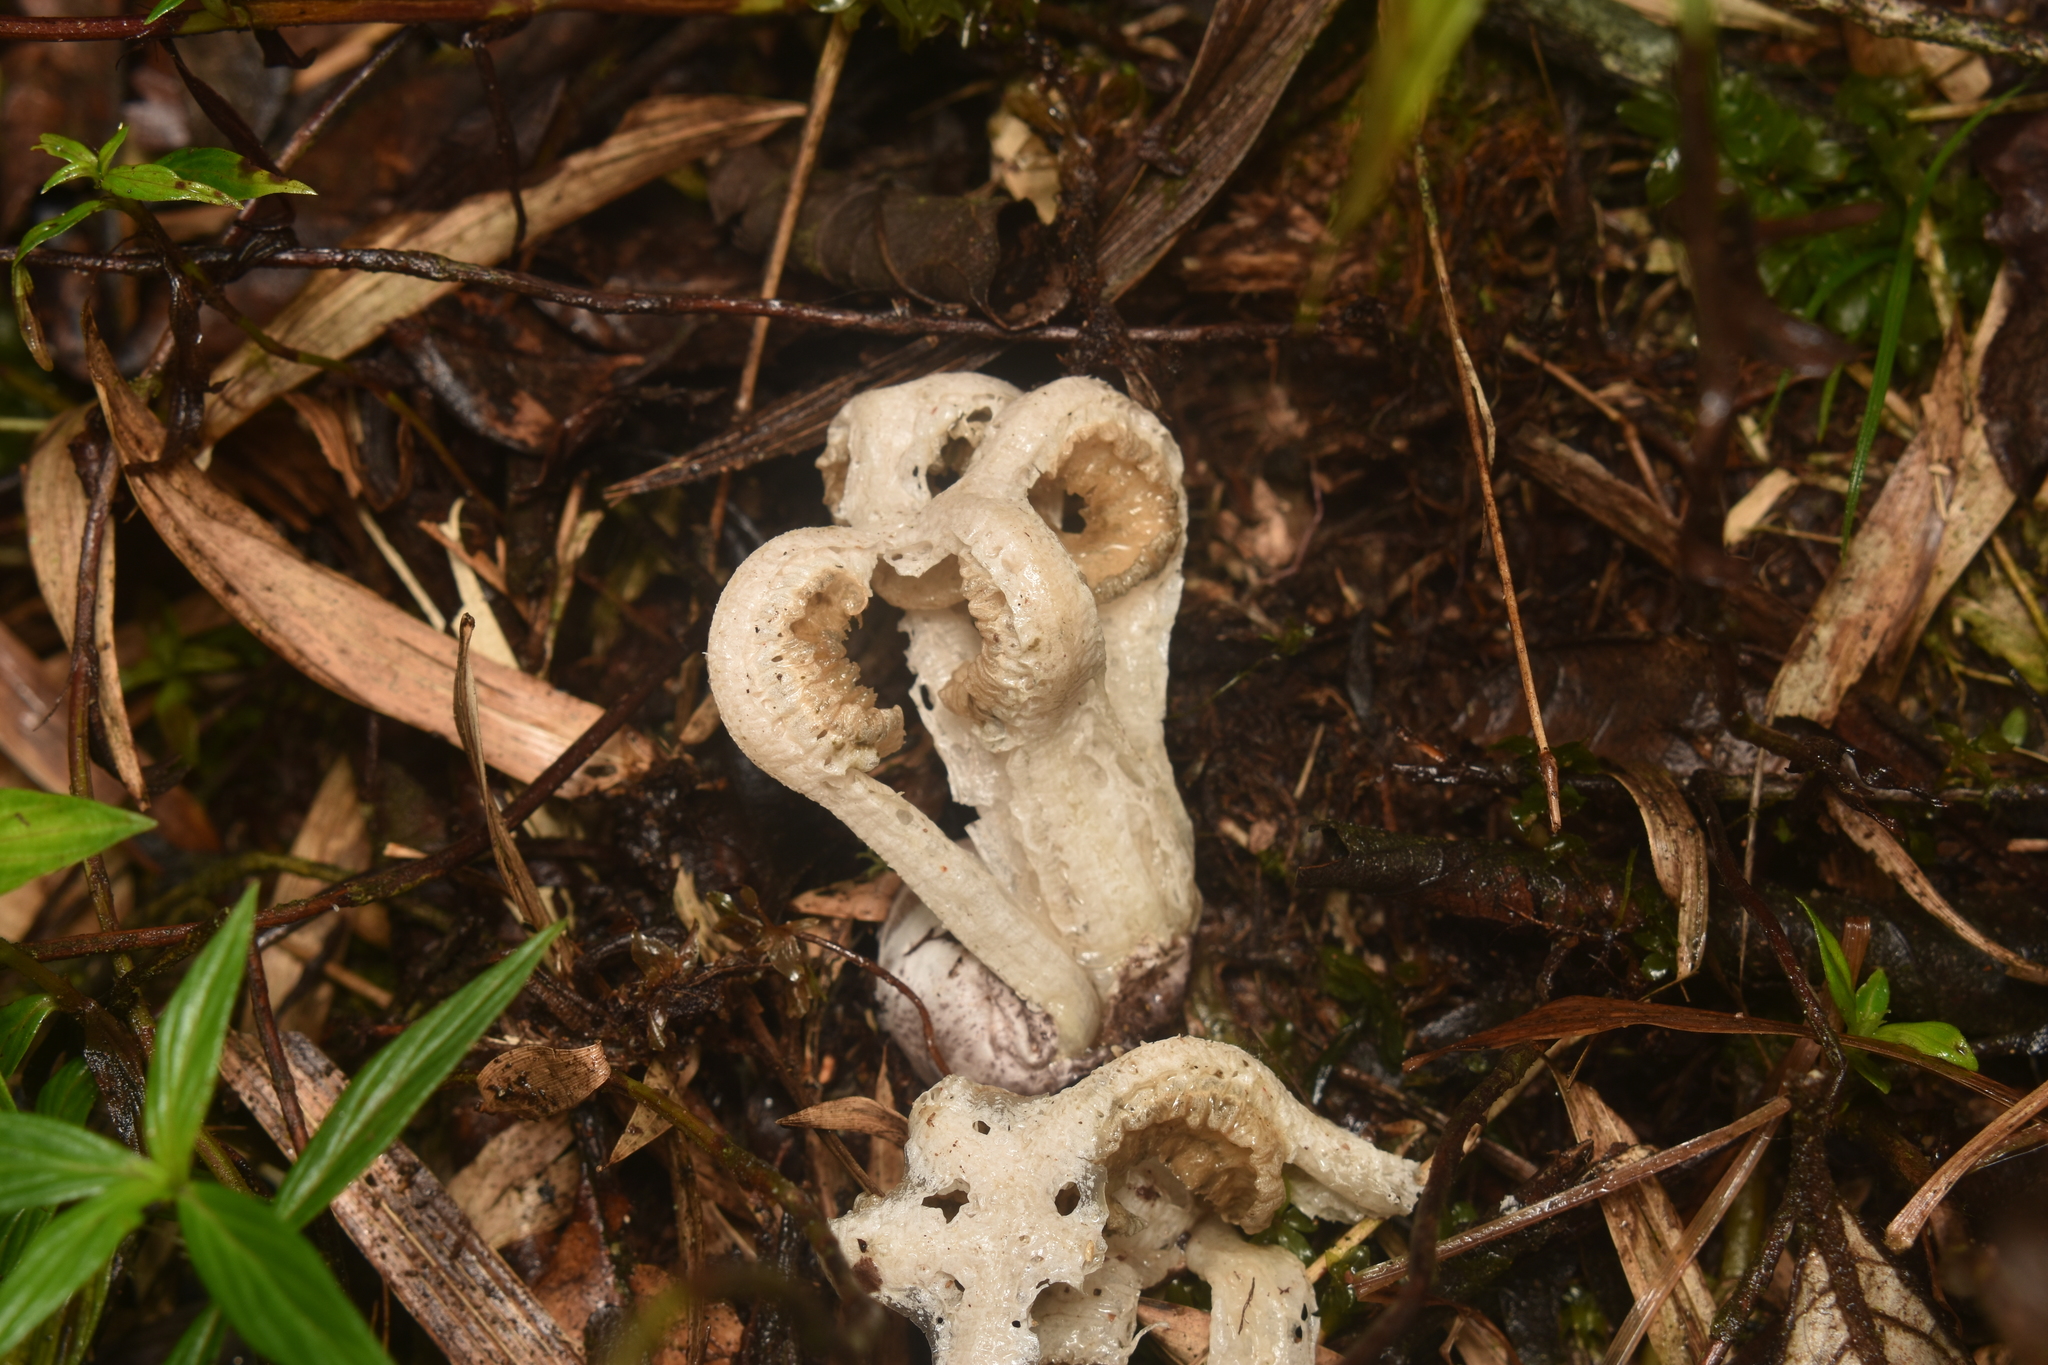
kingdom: Fungi
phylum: Basidiomycota
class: Agaricomycetes
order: Phallales
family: Phallaceae
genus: Ligiella
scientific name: Ligiella rodrigueziana
